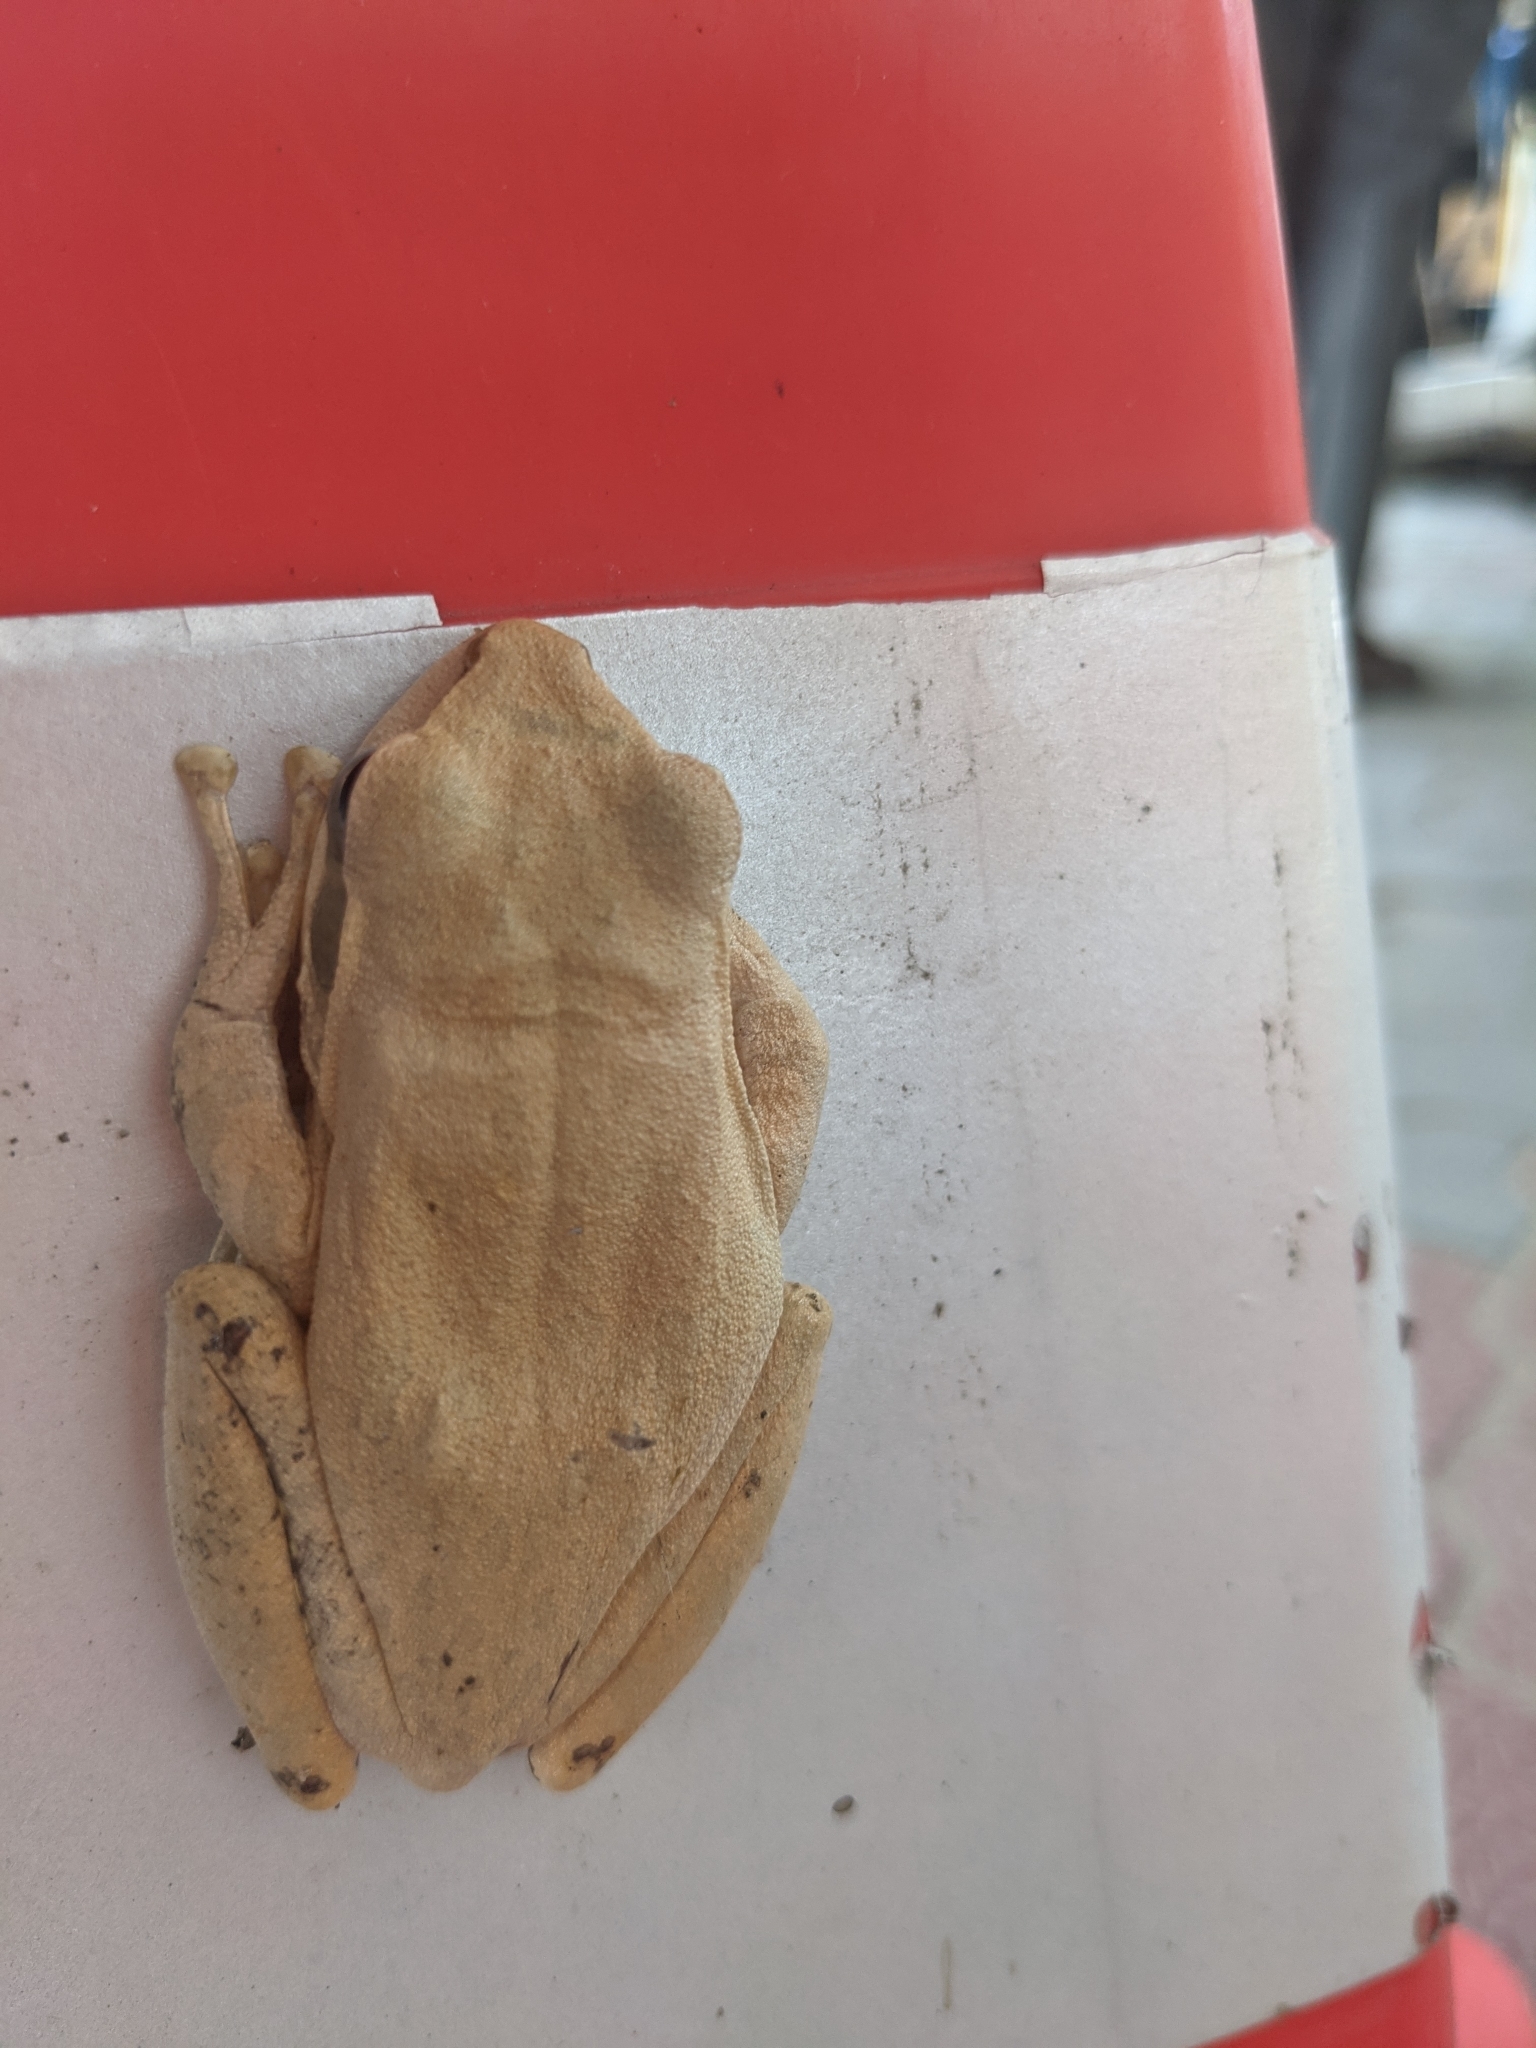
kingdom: Animalia
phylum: Chordata
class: Amphibia
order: Anura
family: Rhacophoridae
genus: Polypedates
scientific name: Polypedates maculatus
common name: Himalayan tree frog
